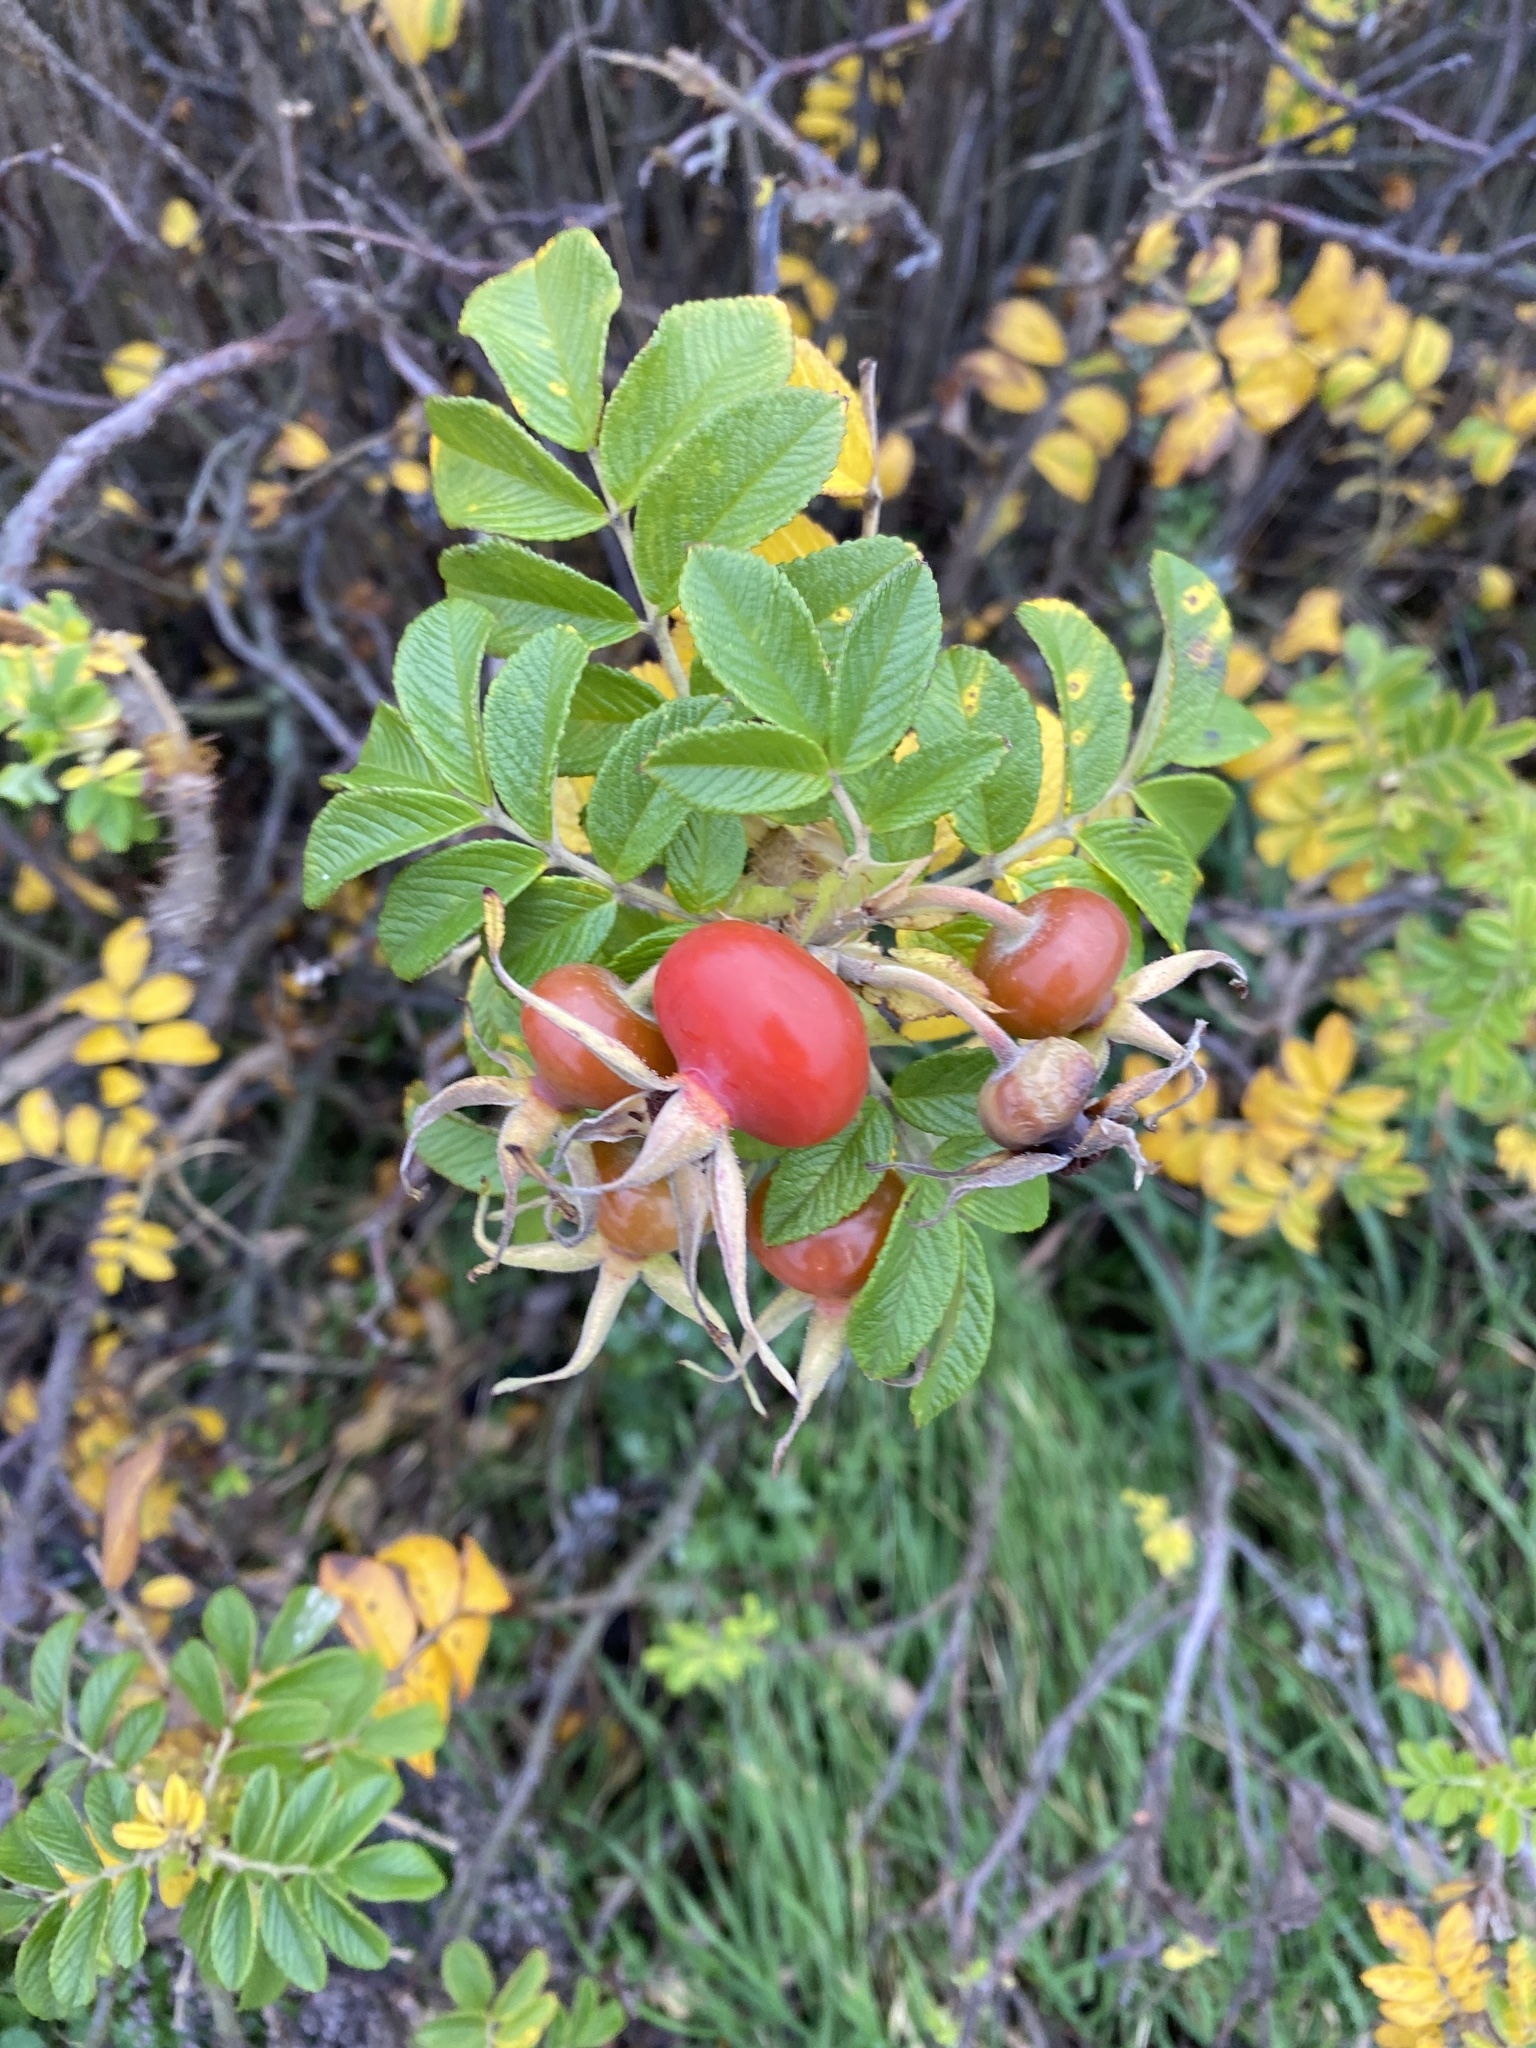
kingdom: Plantae
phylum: Tracheophyta
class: Magnoliopsida
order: Rosales
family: Rosaceae
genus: Rosa
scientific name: Rosa rugosa
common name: Japanese rose
